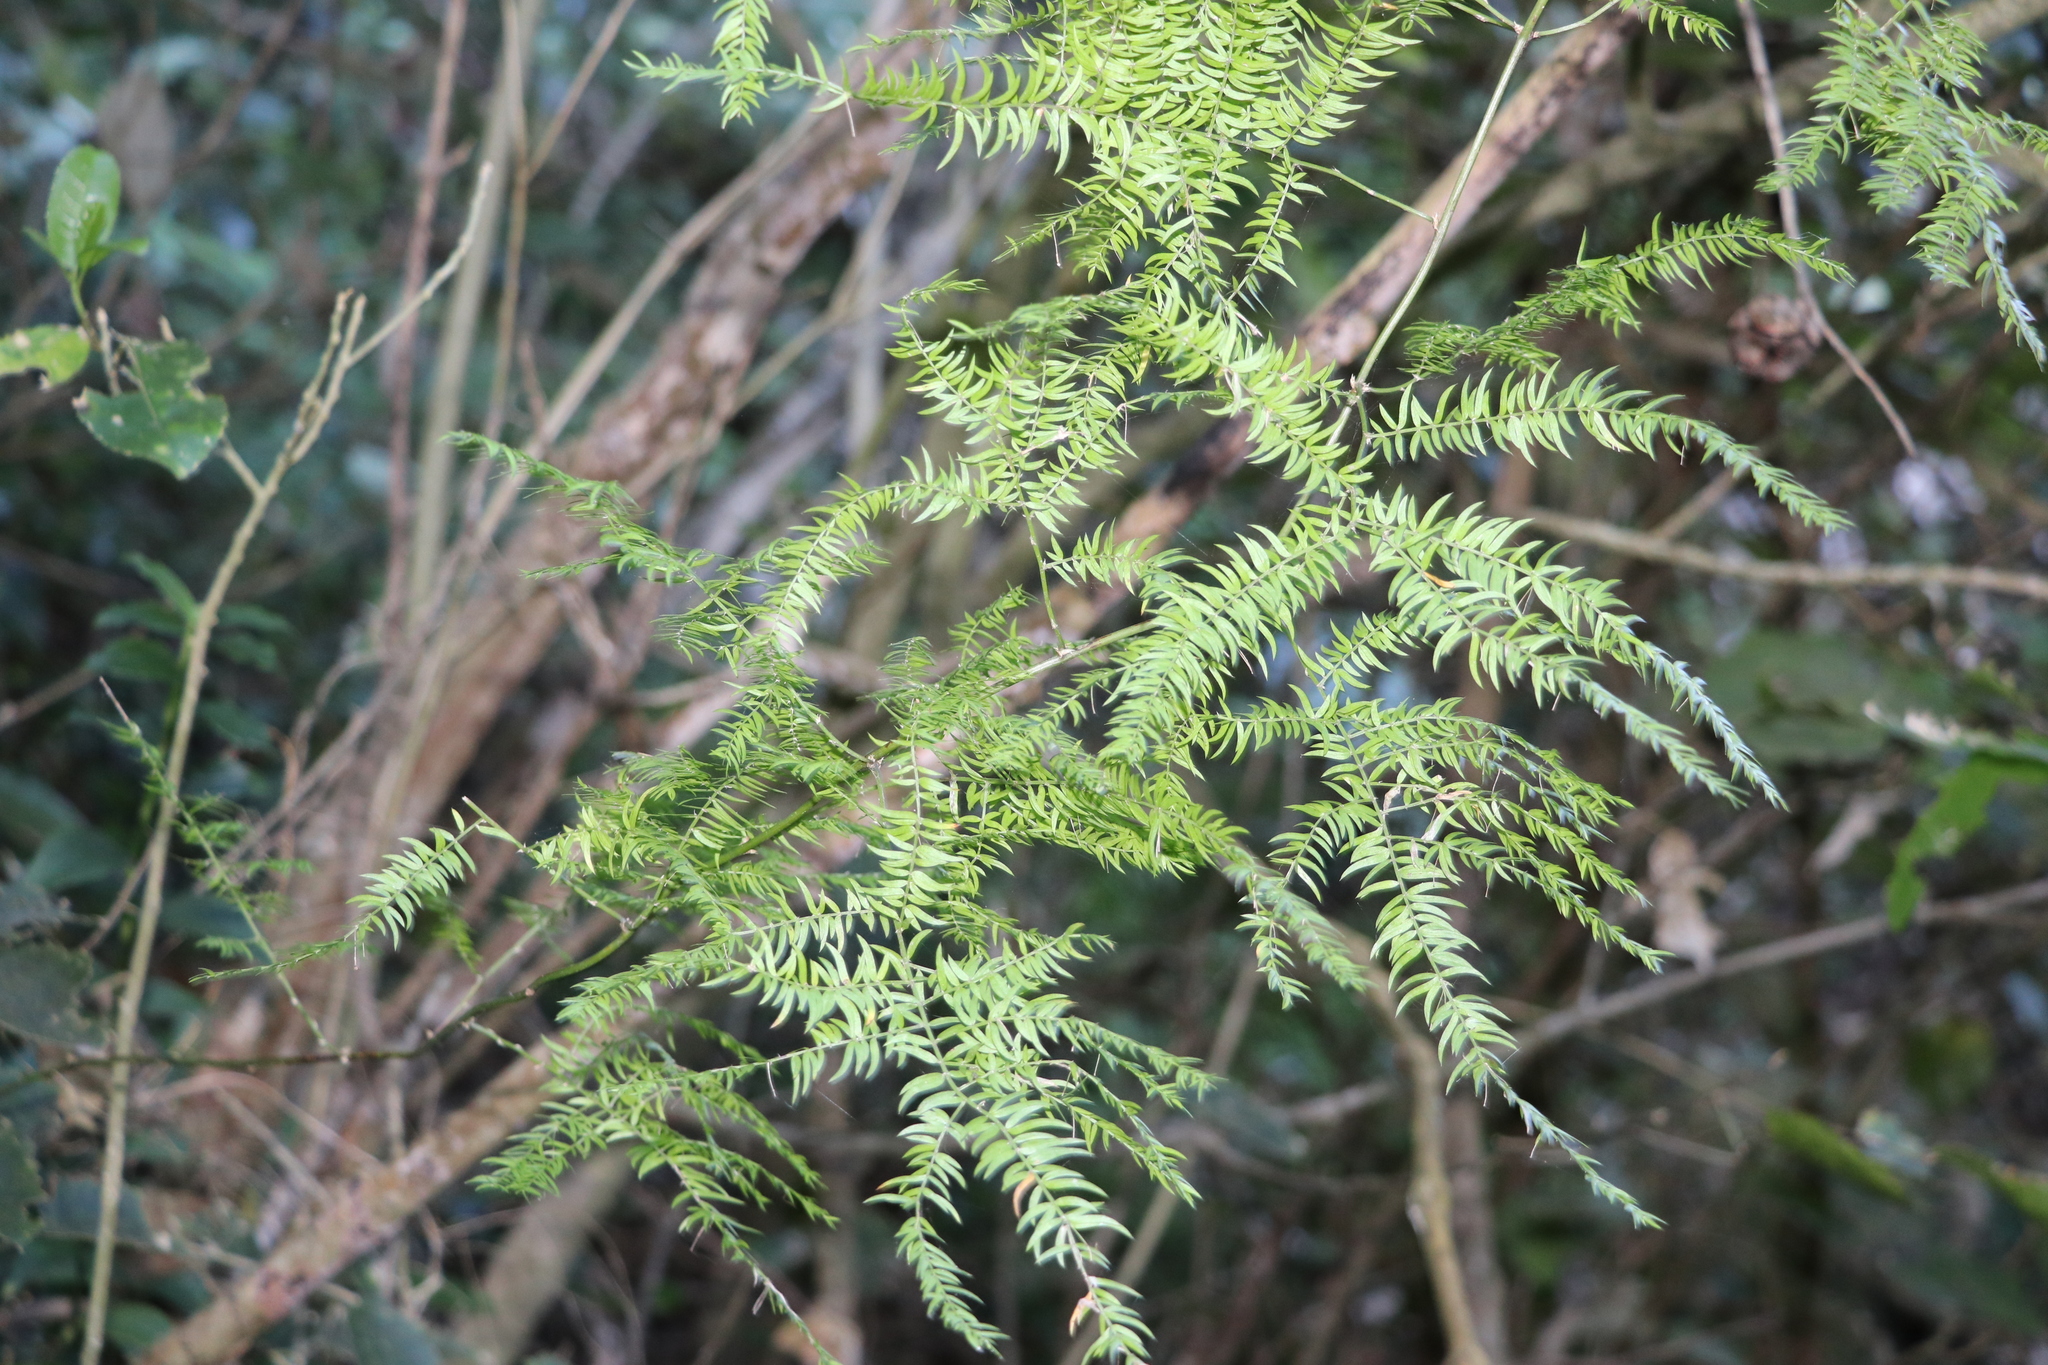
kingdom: Plantae
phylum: Tracheophyta
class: Liliopsida
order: Asparagales
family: Asparagaceae
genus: Asparagus
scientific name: Asparagus scandens
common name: Asparagus-fern
